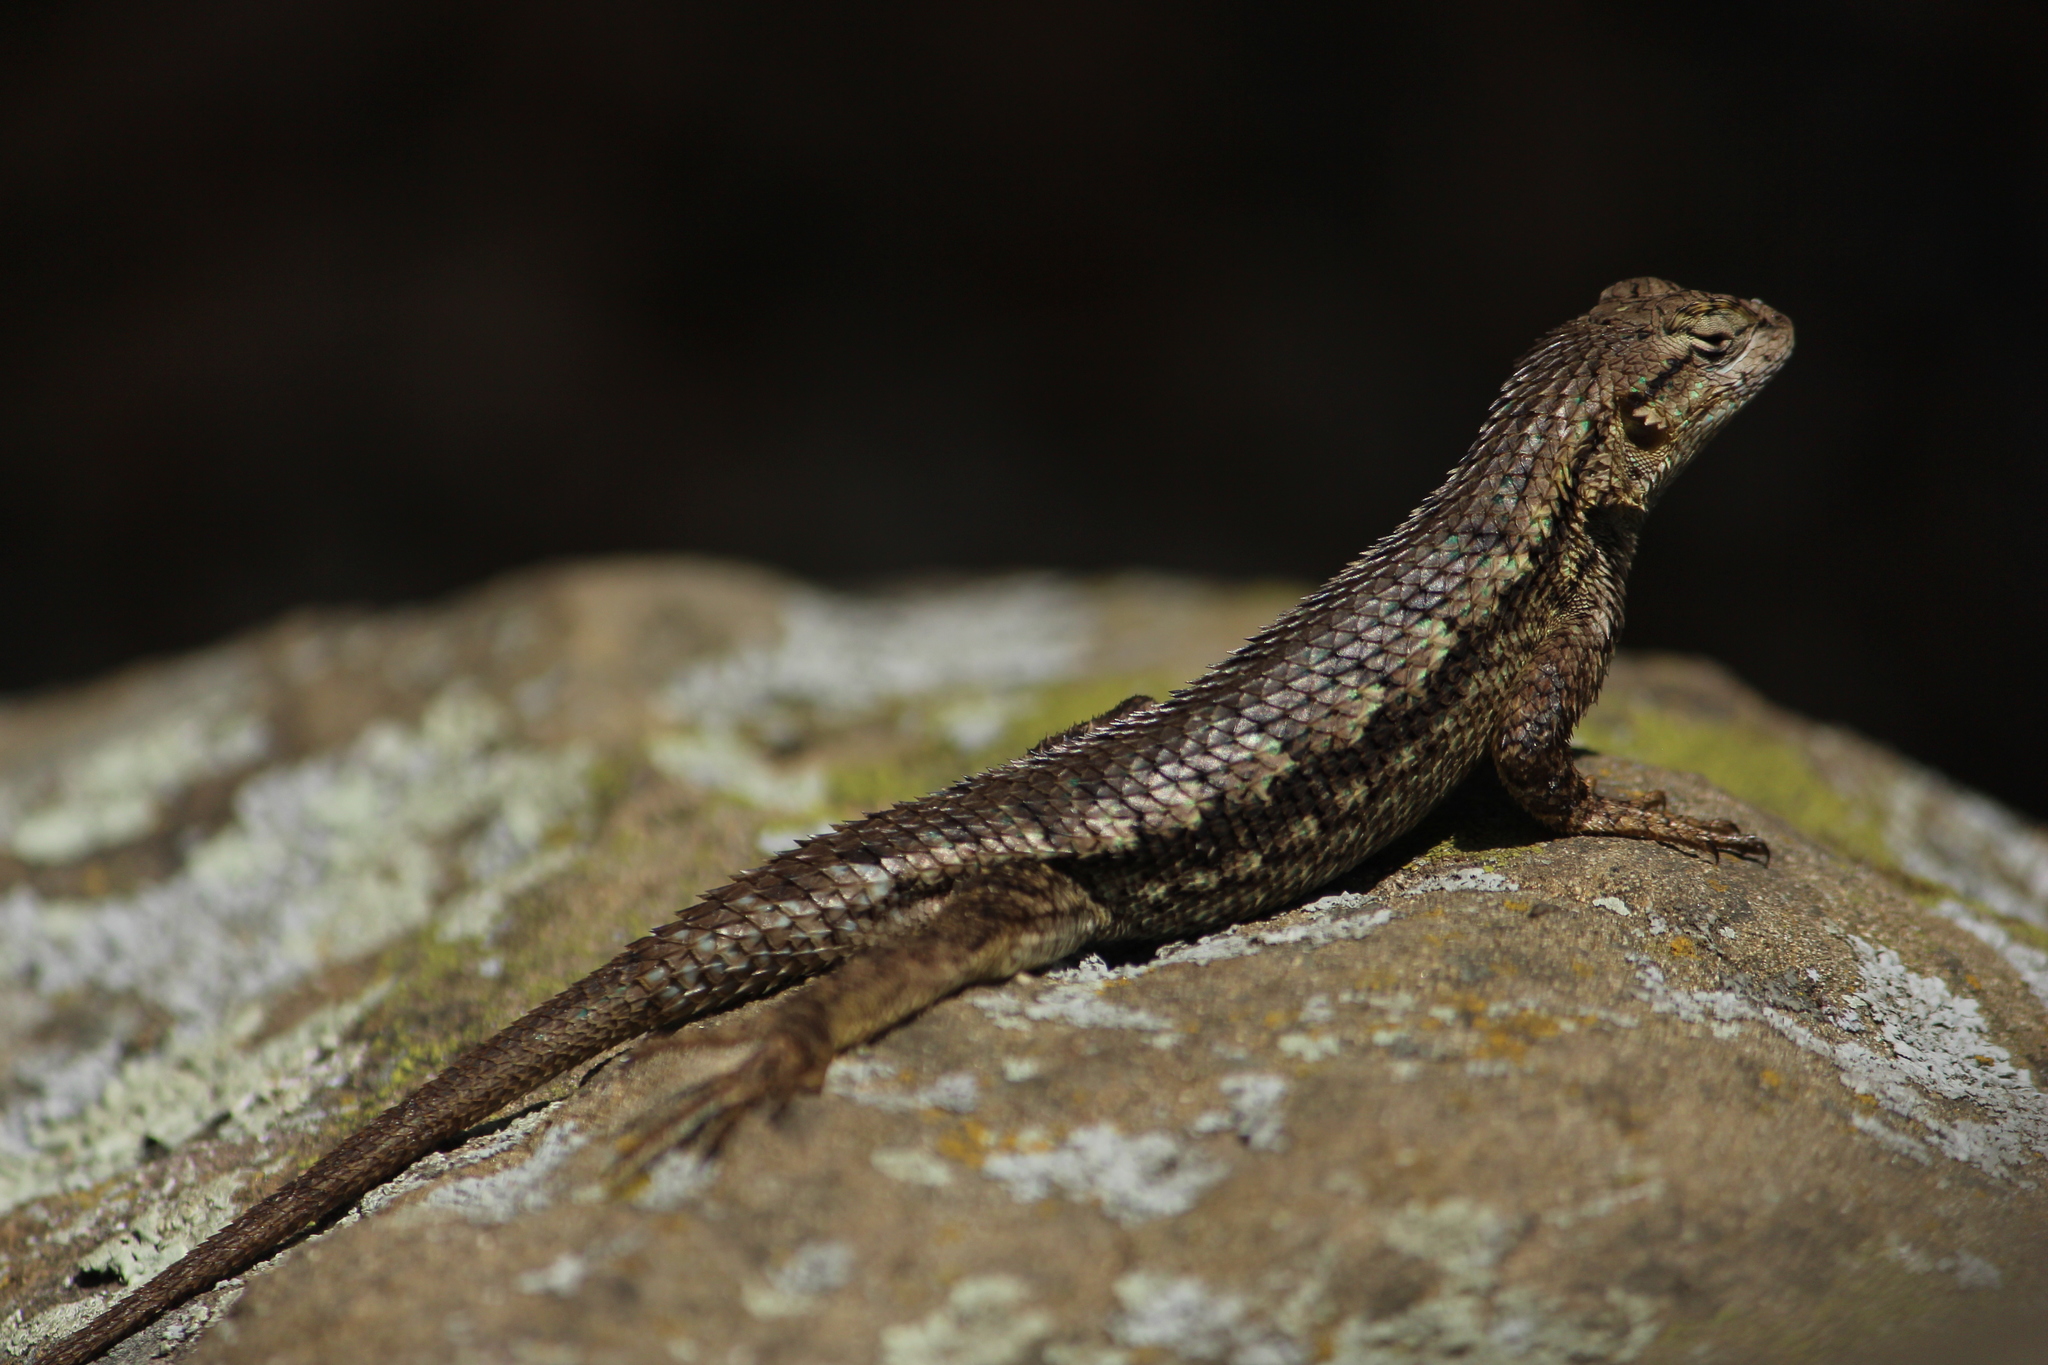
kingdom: Animalia
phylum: Chordata
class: Squamata
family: Phrynosomatidae
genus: Sceloporus
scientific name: Sceloporus occidentalis
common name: Western fence lizard
